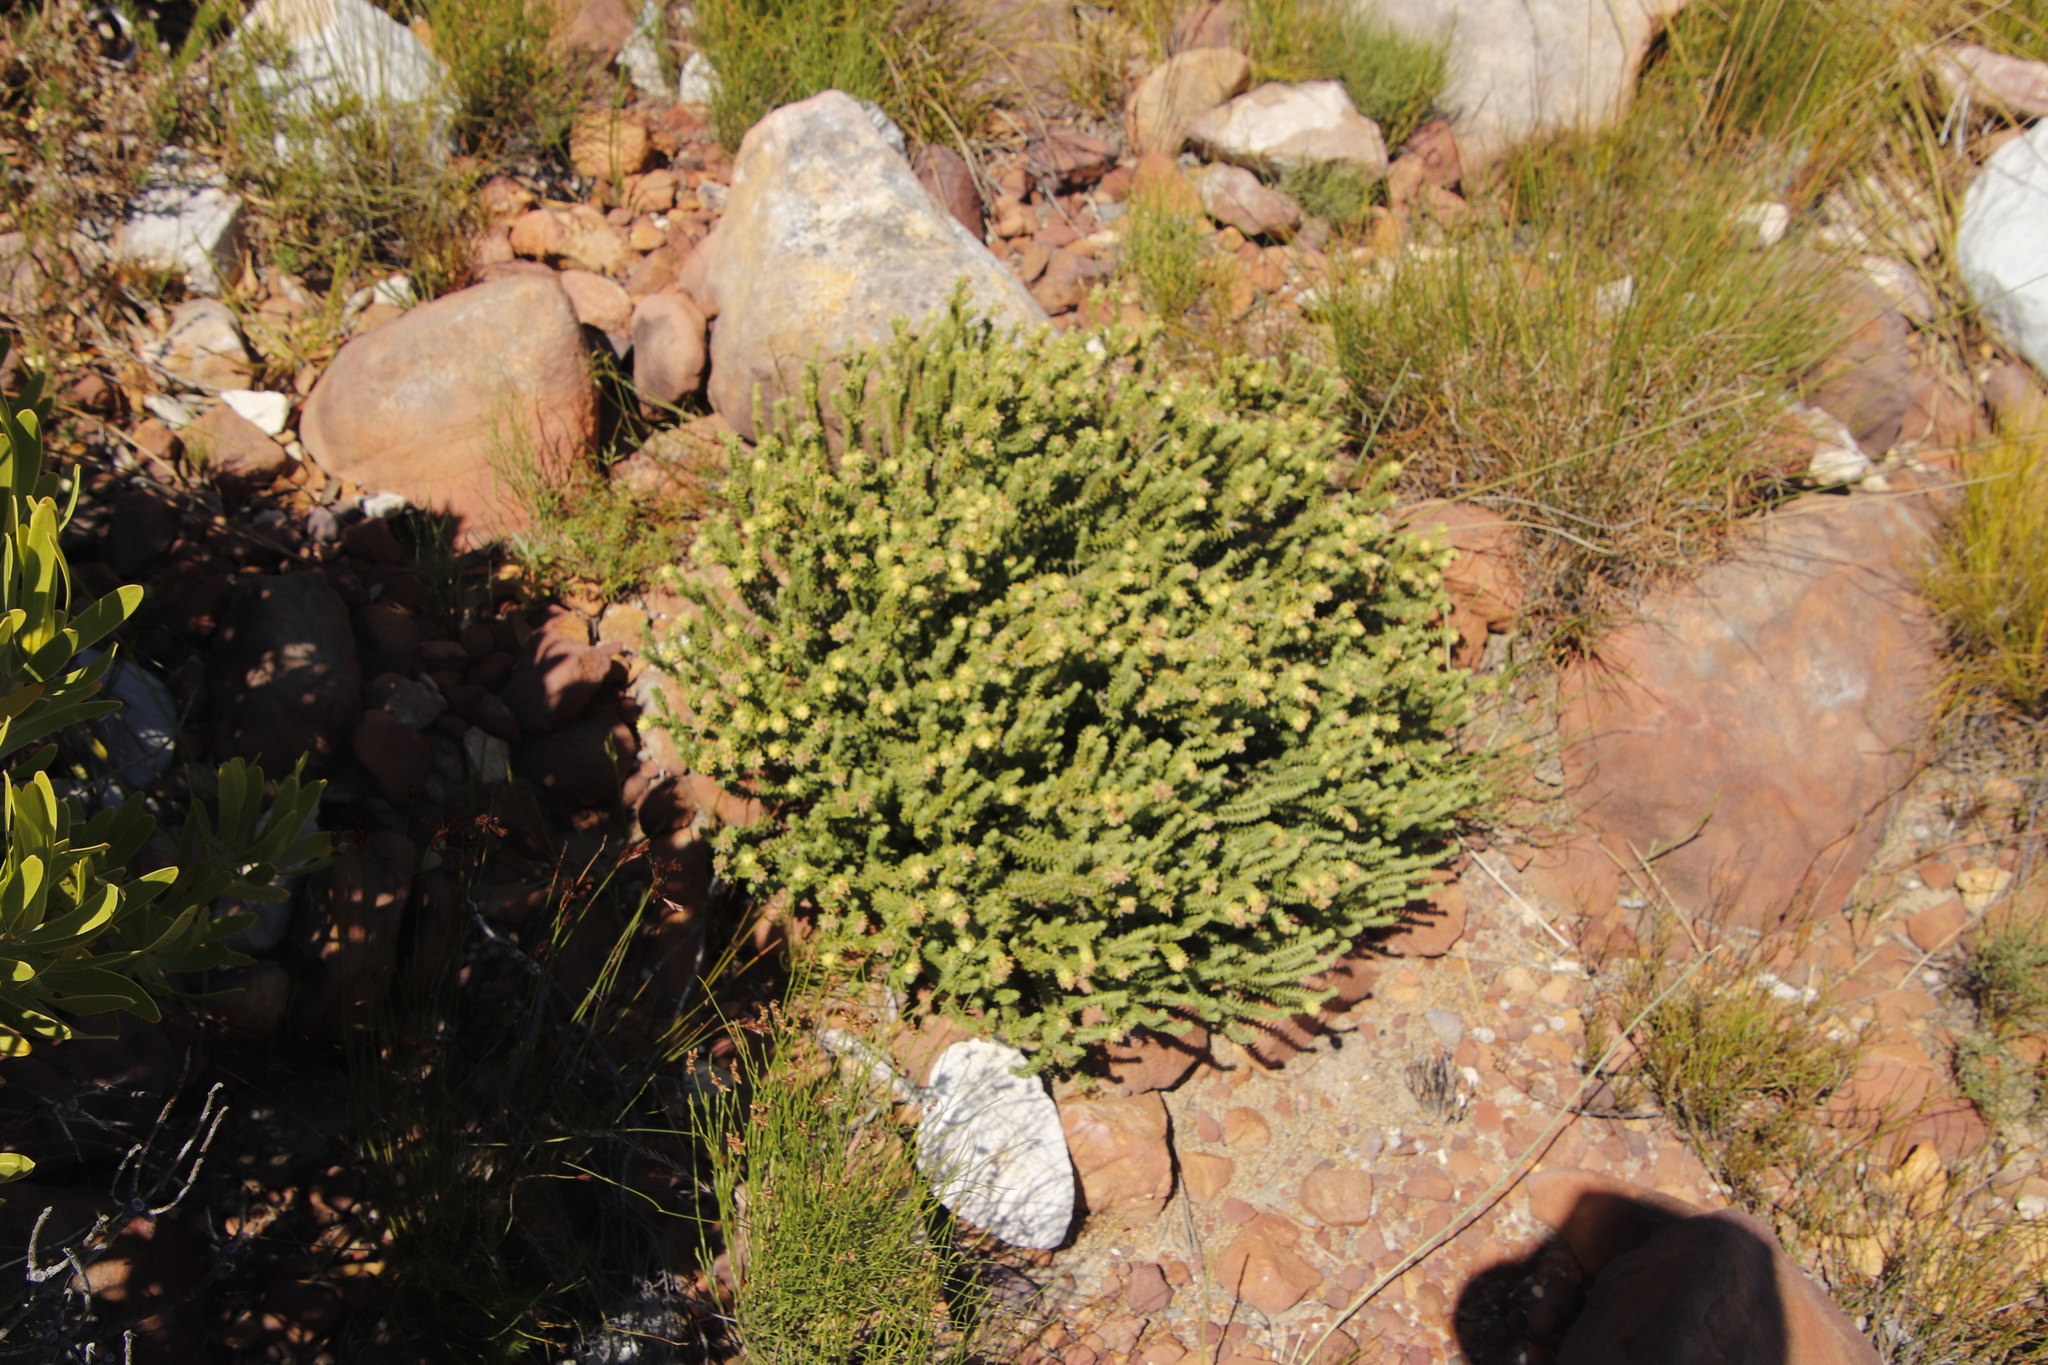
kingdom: Plantae
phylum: Tracheophyta
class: Magnoliopsida
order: Lamiales
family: Stilbaceae
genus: Campylostachys
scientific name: Campylostachys cernua
